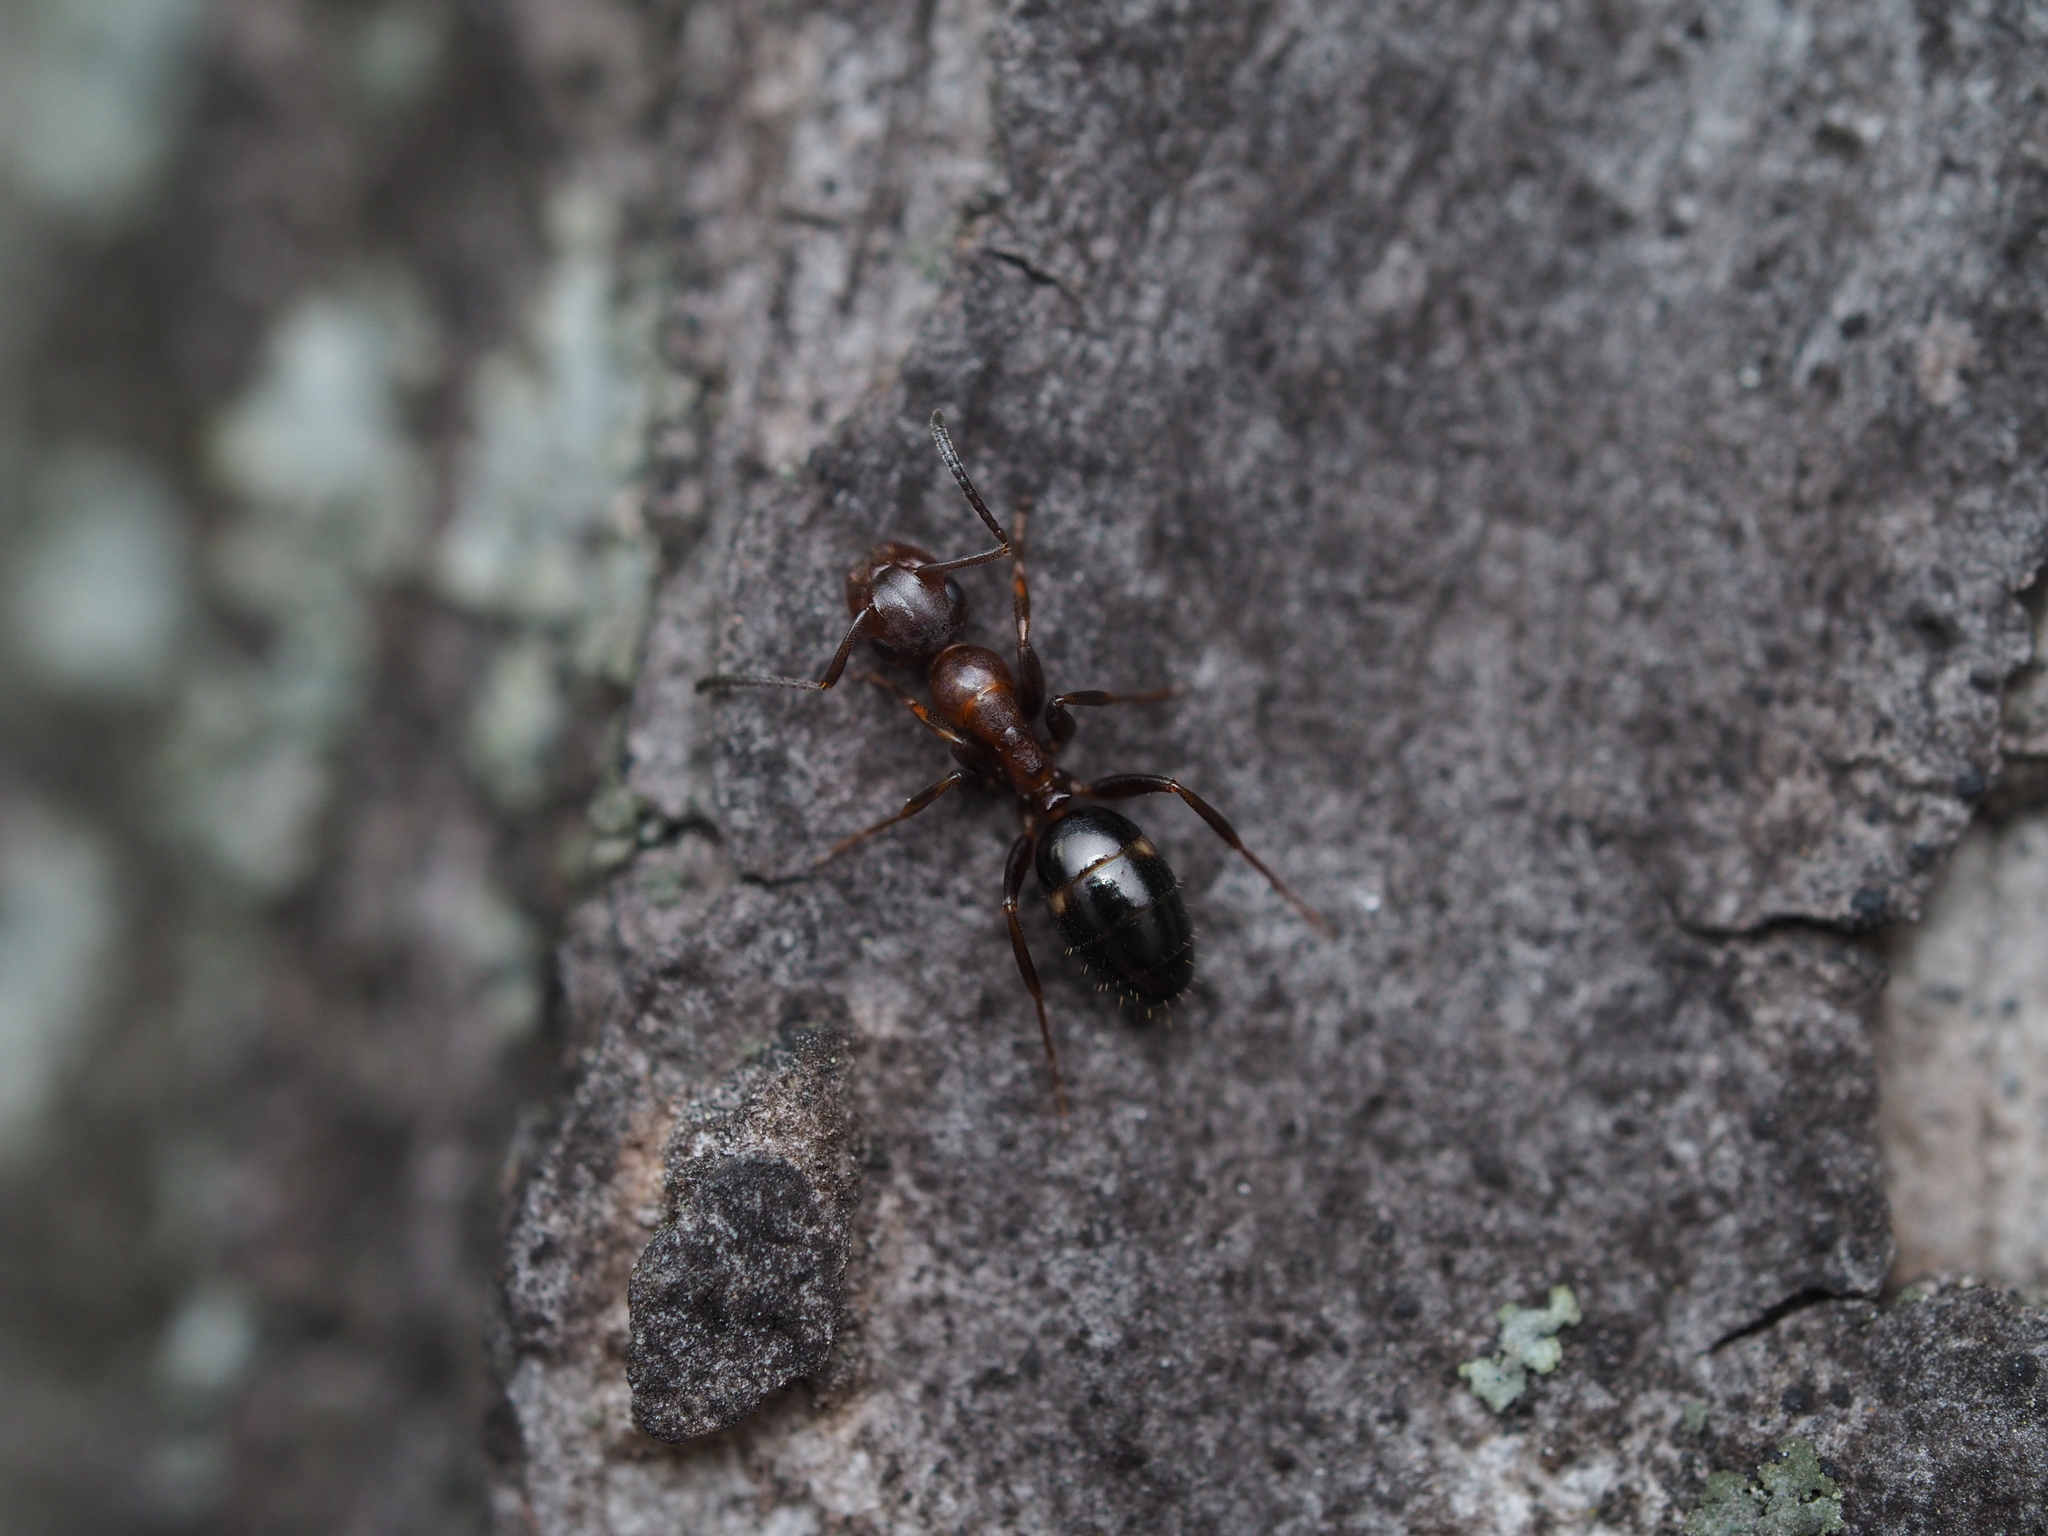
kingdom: Animalia
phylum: Arthropoda
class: Insecta
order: Hymenoptera
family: Formicidae
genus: Camponotus
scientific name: Camponotus truncatus
